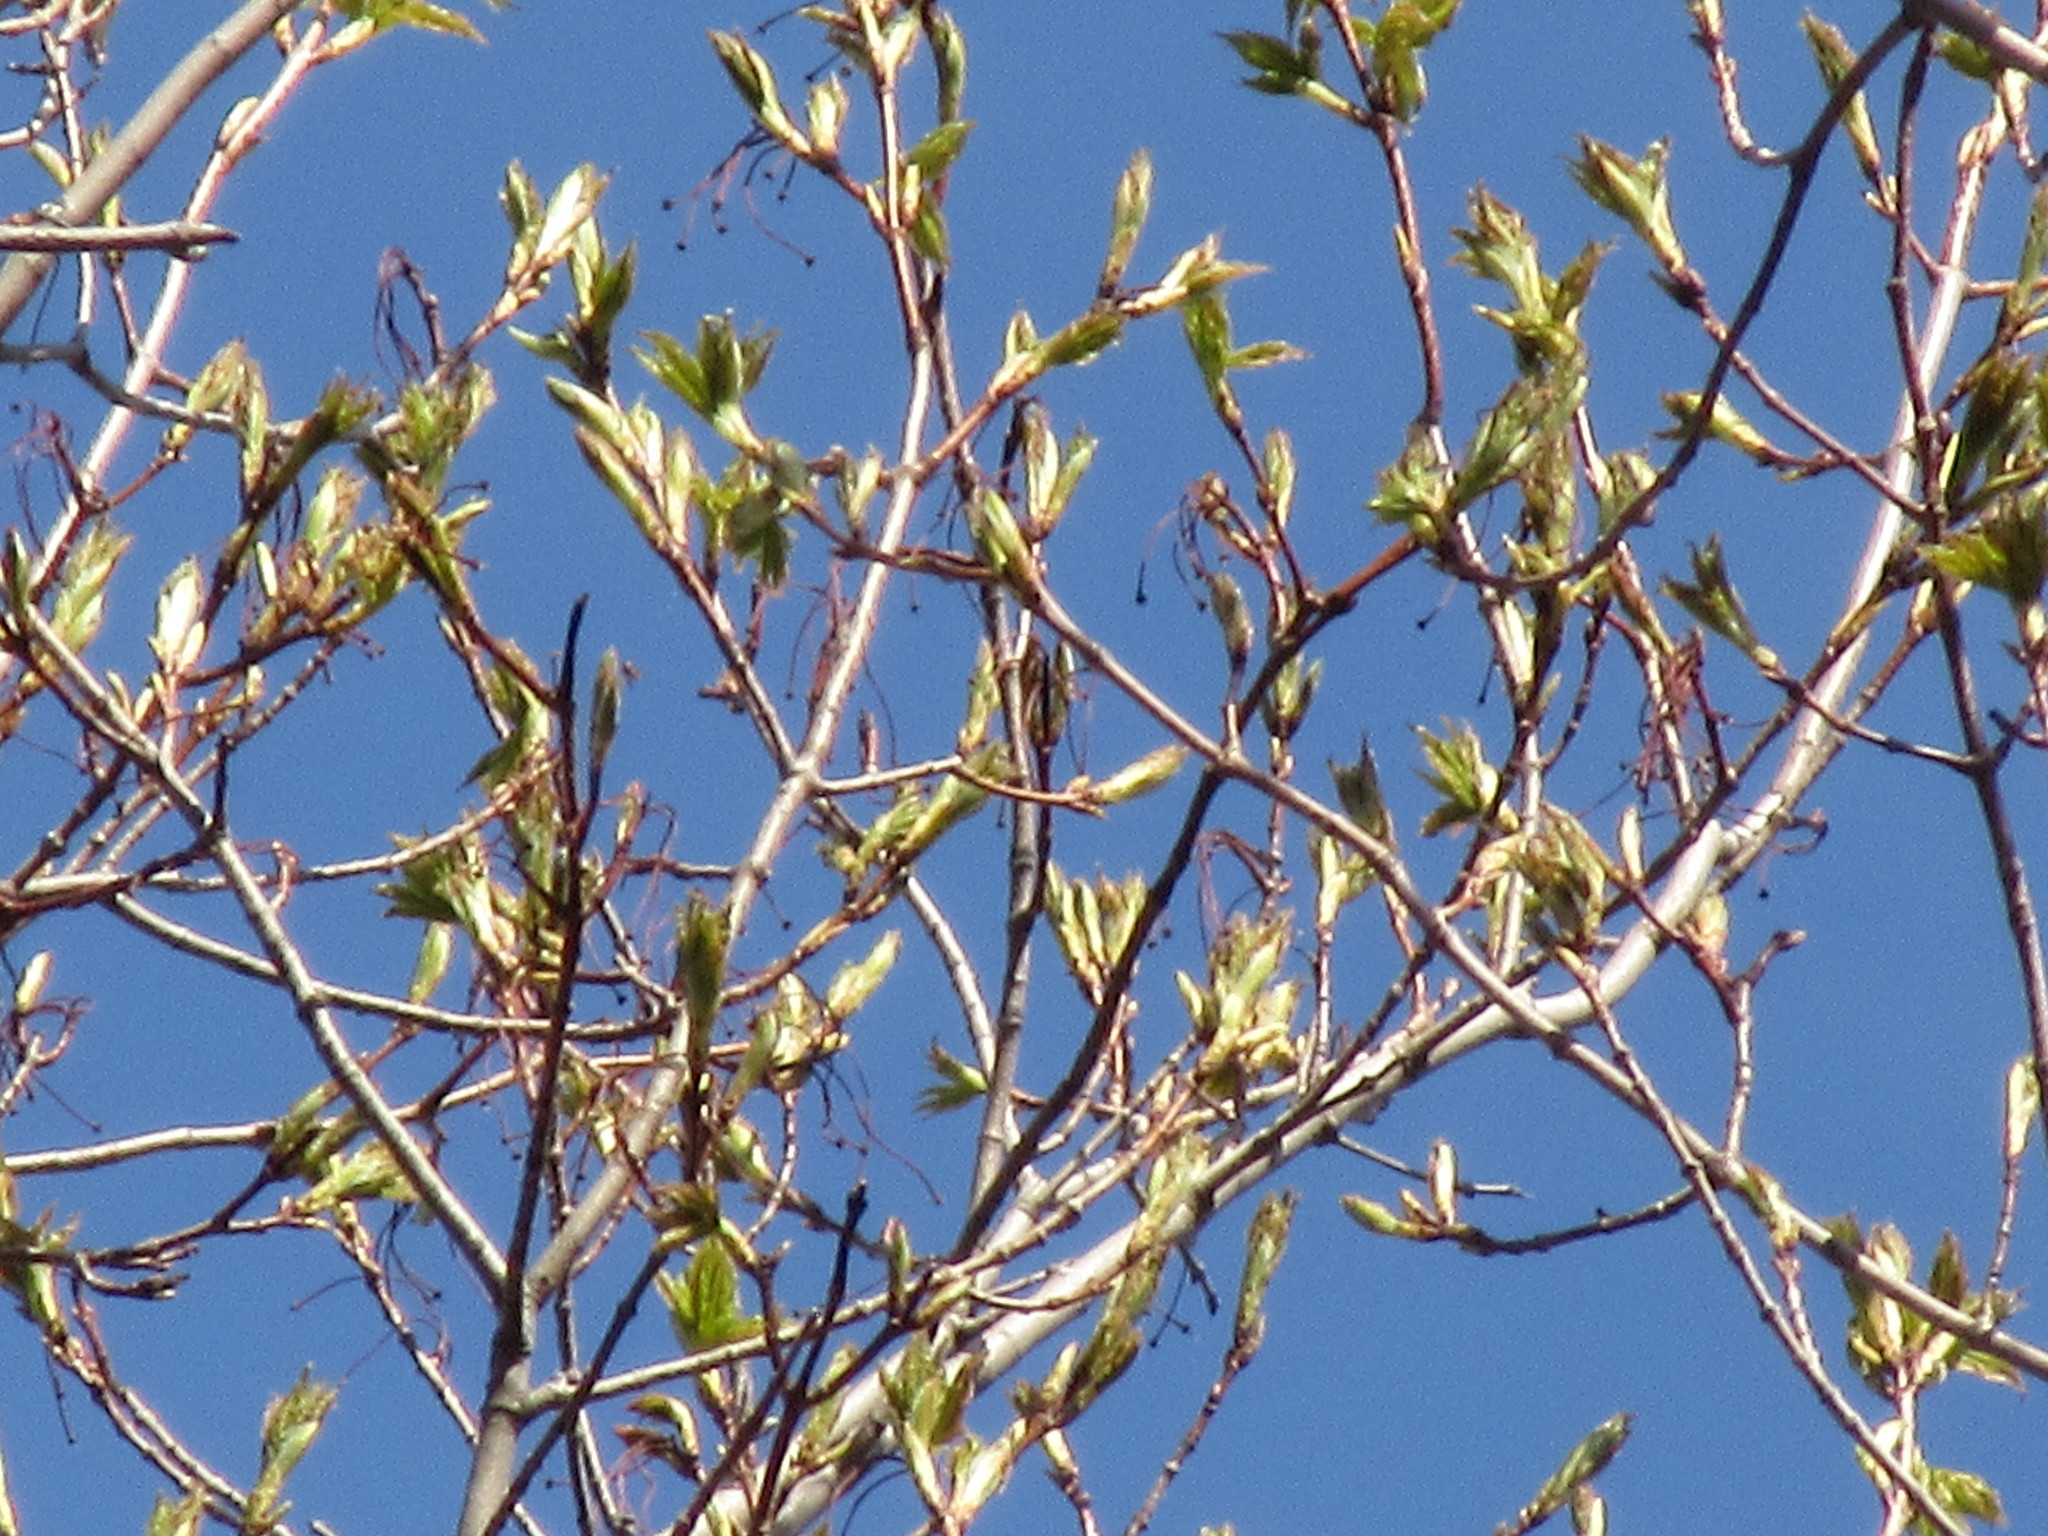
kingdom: Plantae
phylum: Tracheophyta
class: Magnoliopsida
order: Sapindales
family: Sapindaceae
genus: Acer
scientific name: Acer saccharum
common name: Sugar maple
